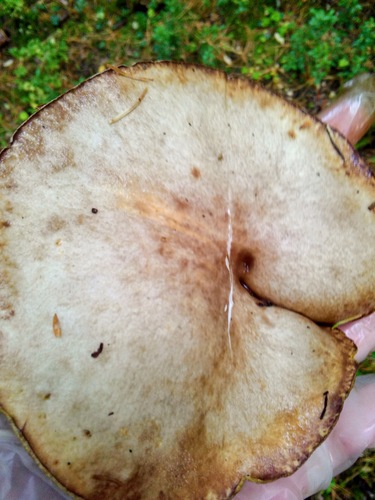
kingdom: Fungi
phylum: Basidiomycota
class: Agaricomycetes
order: Boletales
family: Suillaceae
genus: Suillus
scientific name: Suillus placidus
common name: Slippery white bolete
